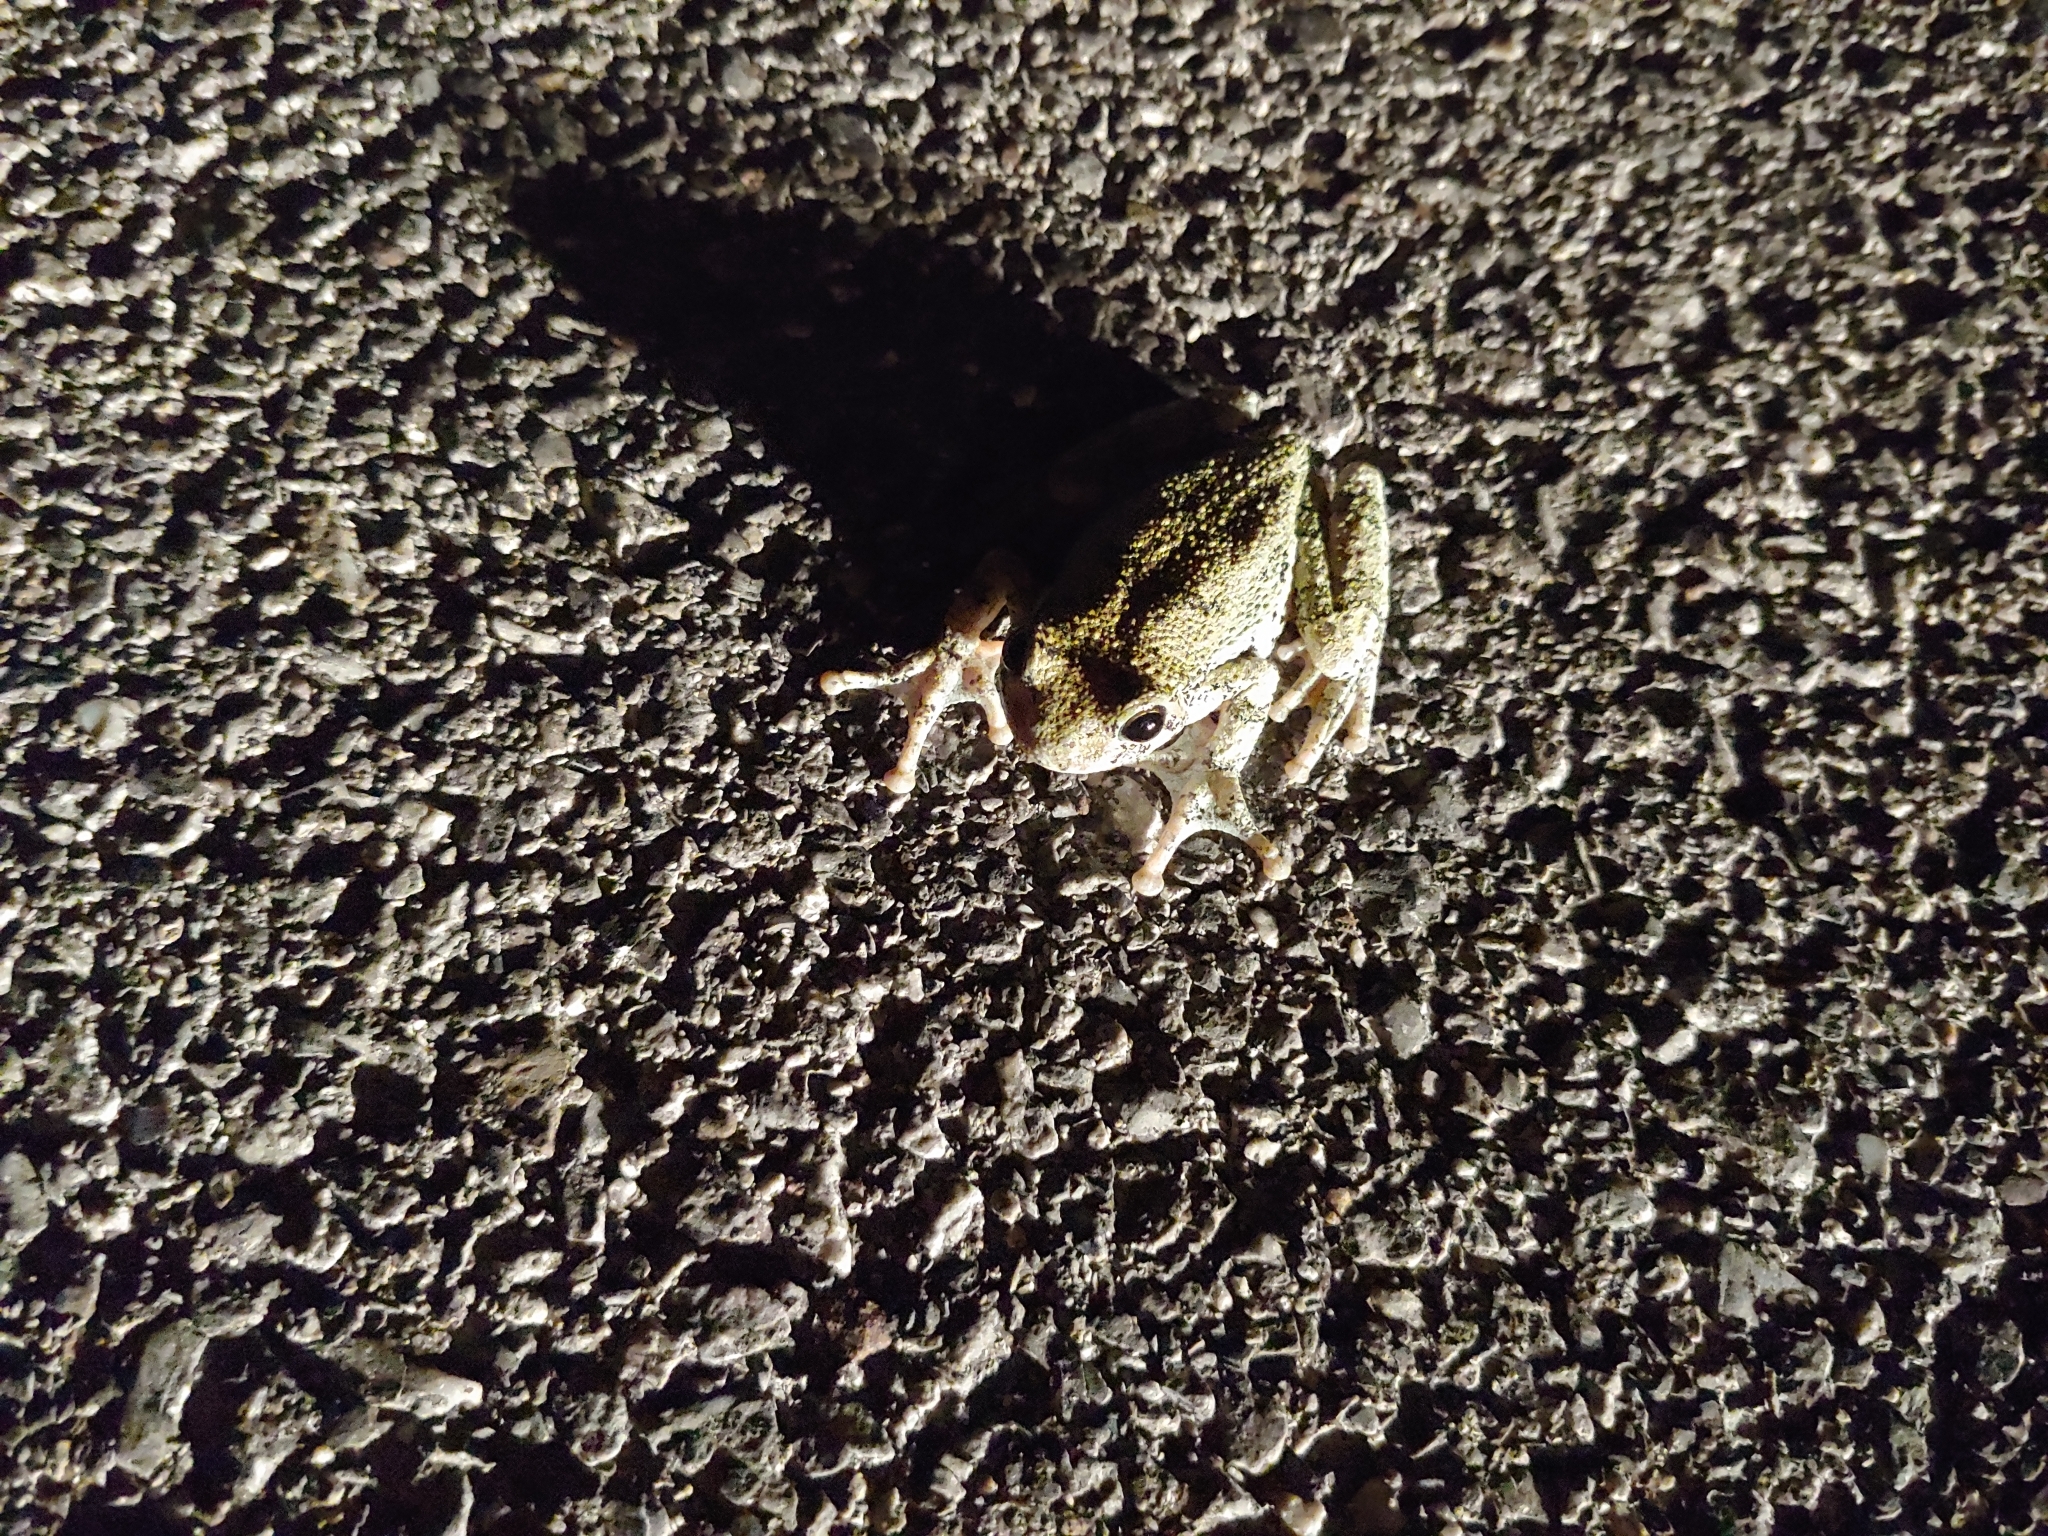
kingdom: Animalia
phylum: Chordata
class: Amphibia
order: Anura
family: Hylidae
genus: Dryophytes
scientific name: Dryophytes versicolor
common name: Gray treefrog
